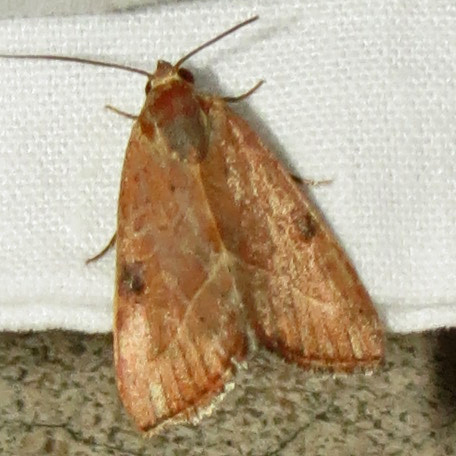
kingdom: Animalia
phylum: Arthropoda
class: Insecta
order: Lepidoptera
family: Noctuidae
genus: Galgula
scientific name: Galgula partita
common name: Wedgeling
